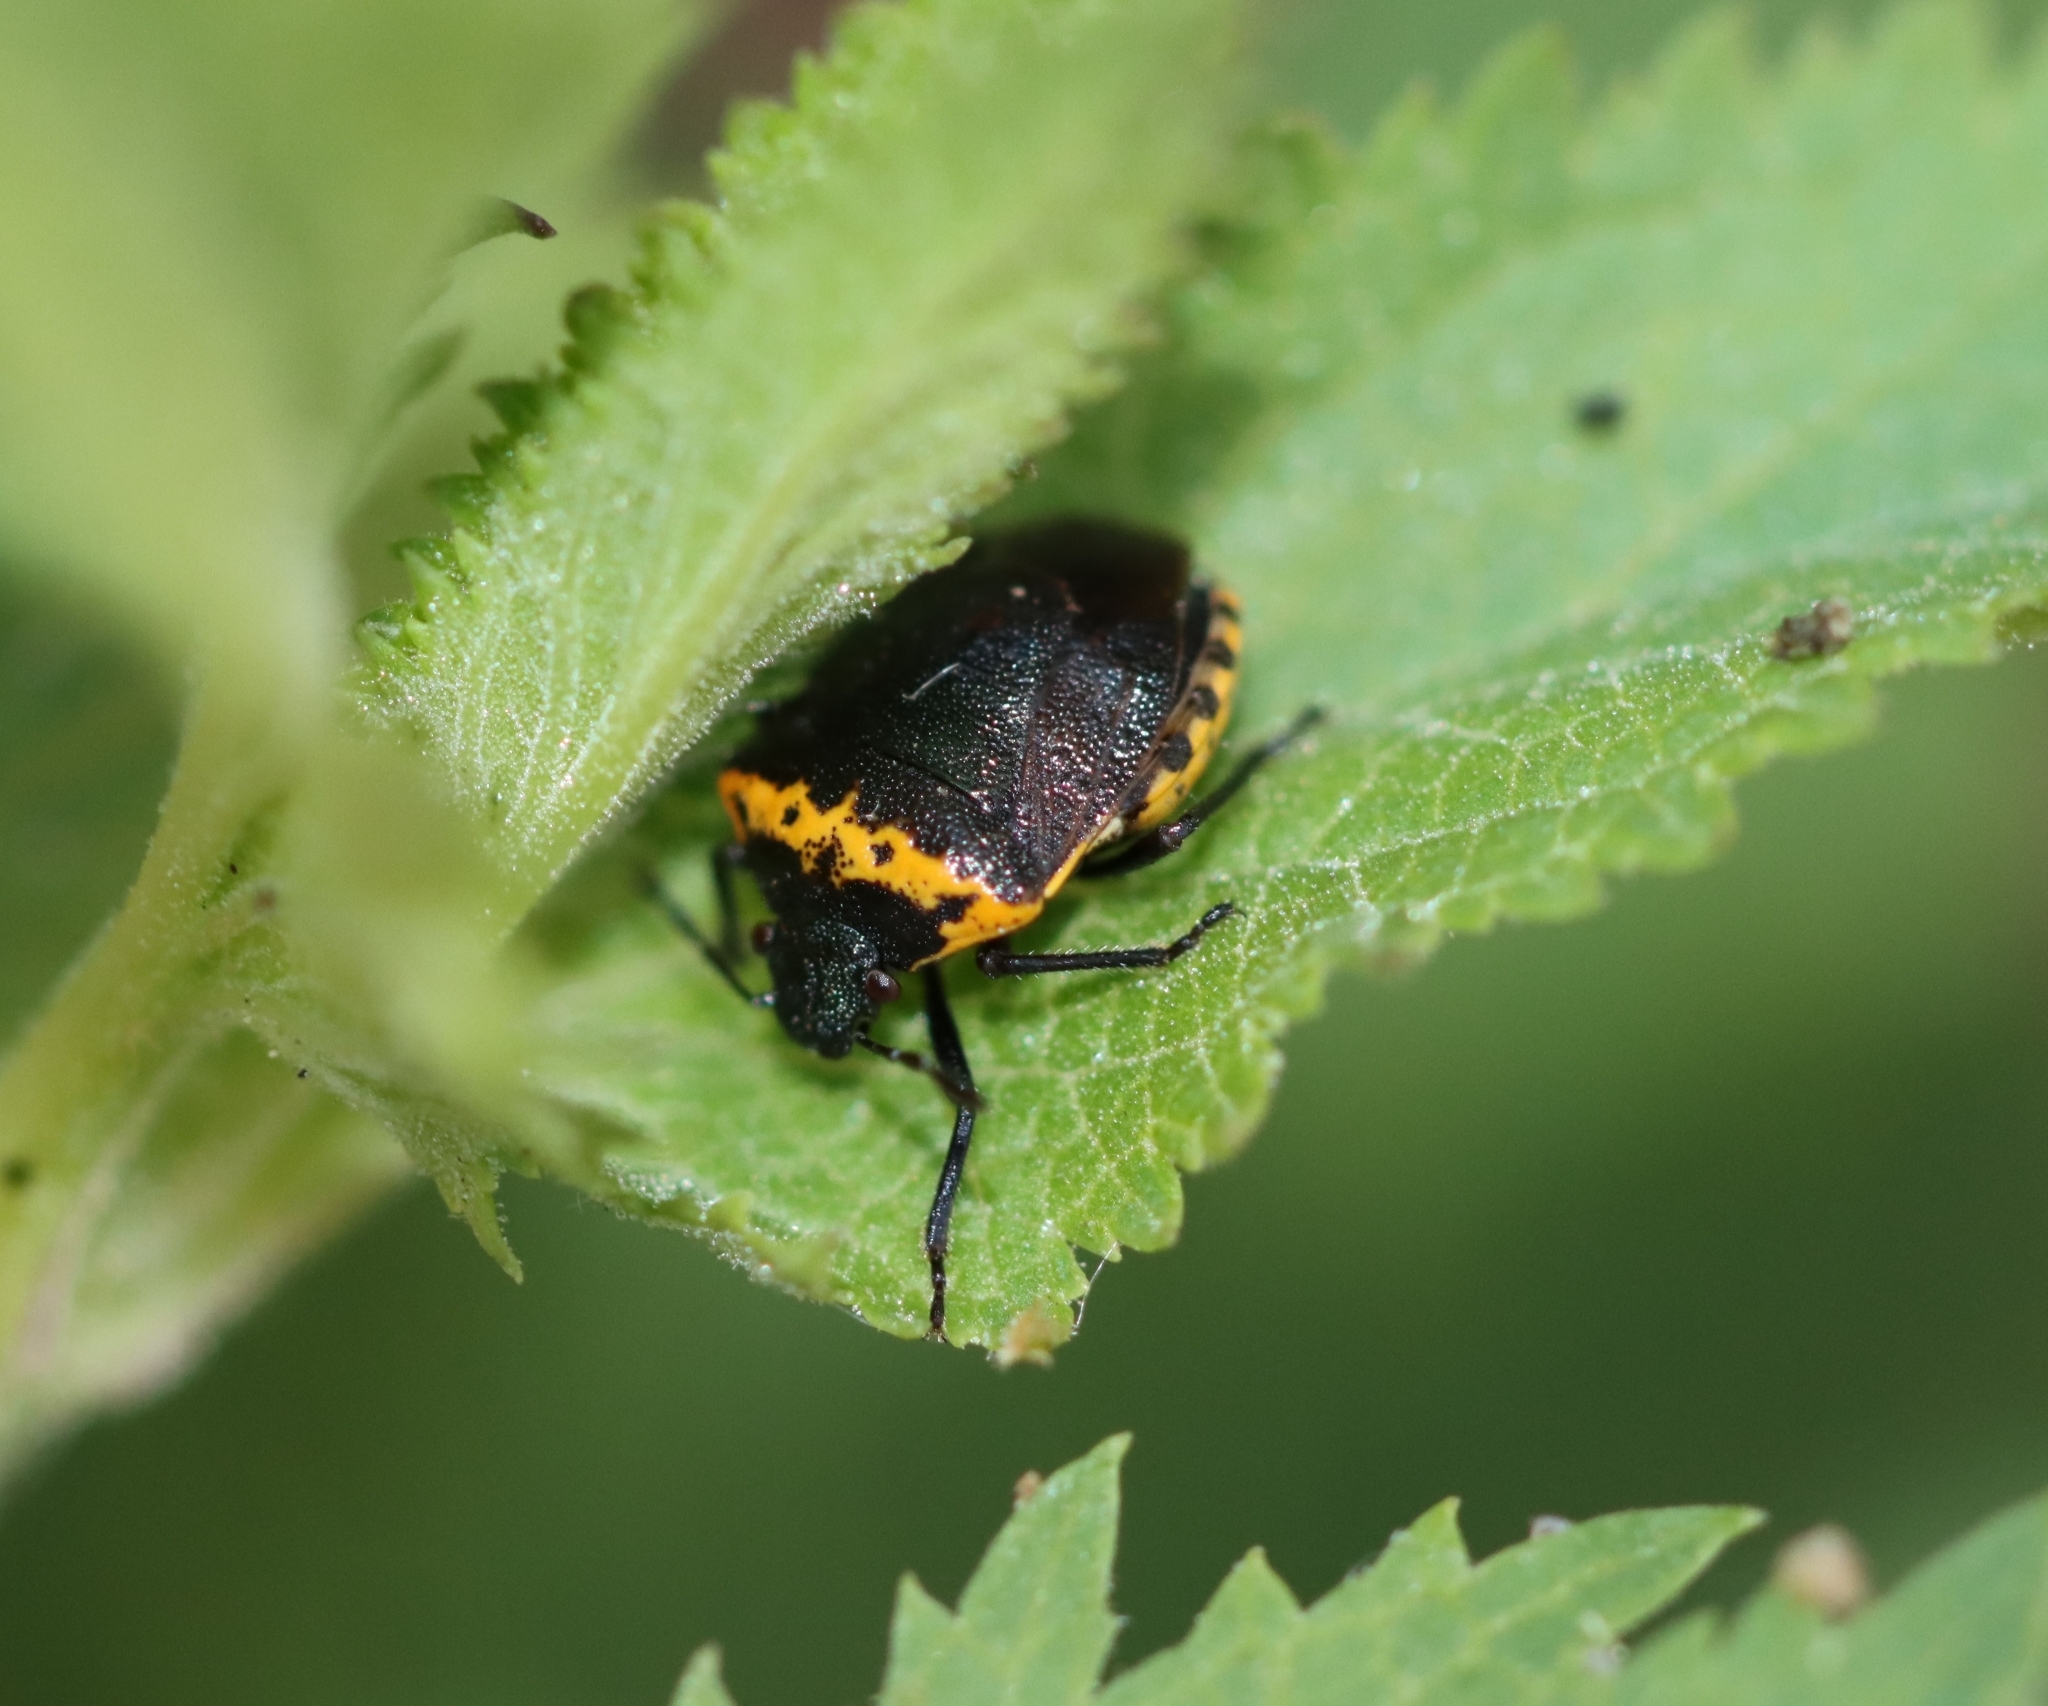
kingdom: Animalia
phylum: Arthropoda
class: Insecta
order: Hemiptera
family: Pentatomidae
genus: Cosmopepla
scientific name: Cosmopepla uhleri
